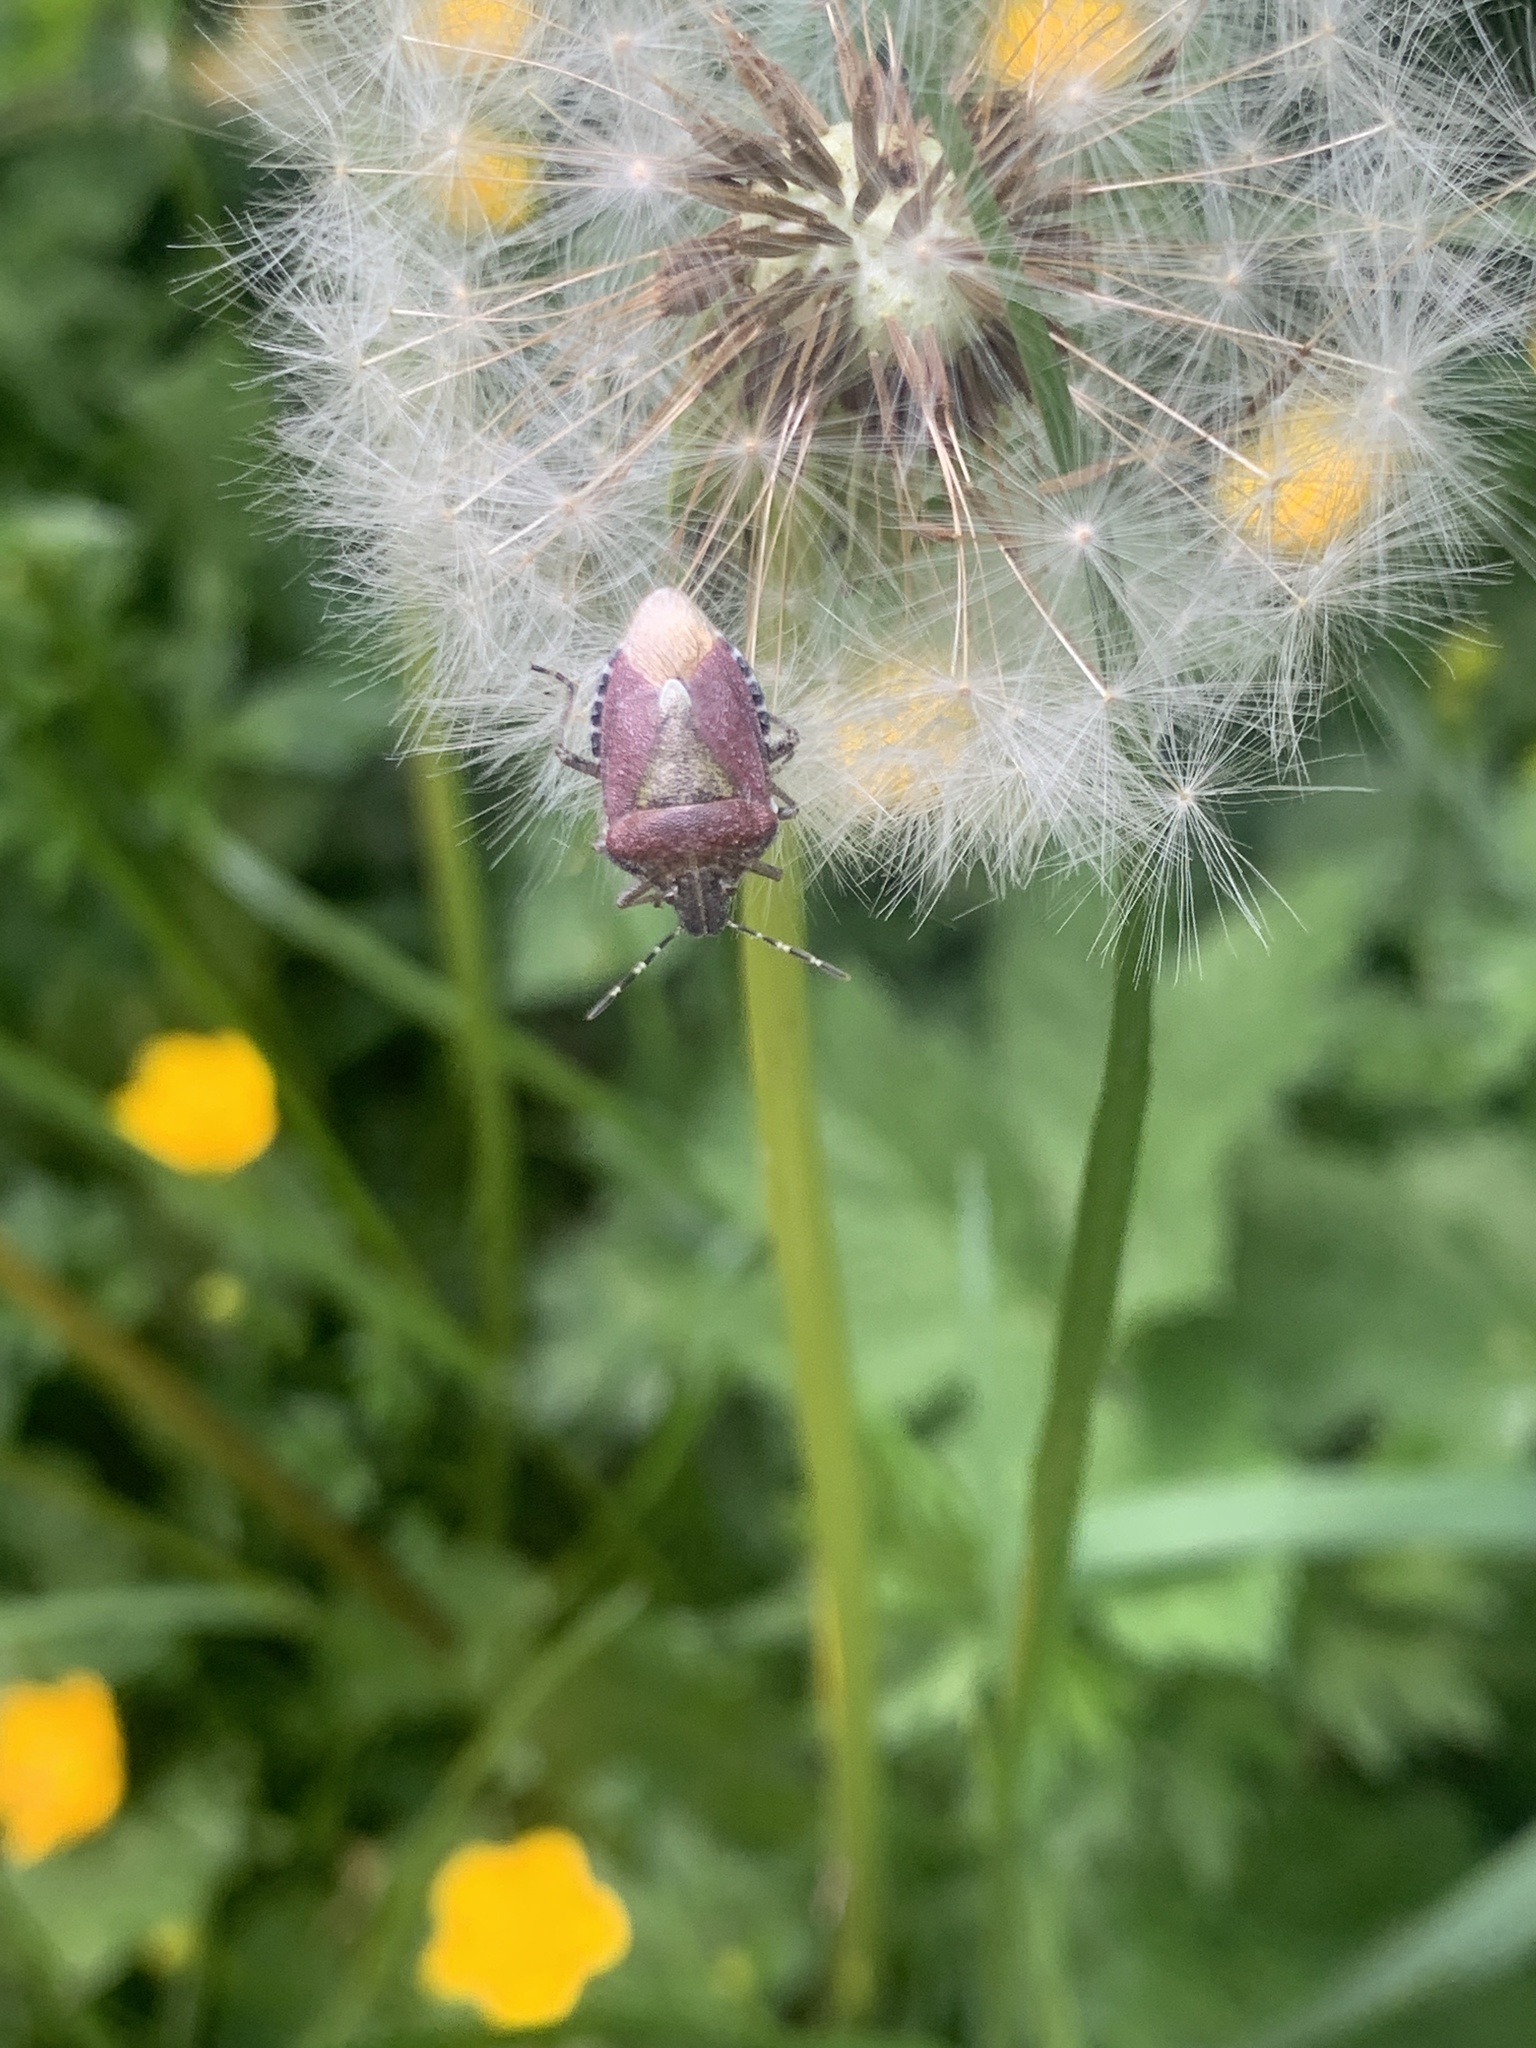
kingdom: Animalia
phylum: Arthropoda
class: Insecta
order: Hemiptera
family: Pentatomidae
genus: Dolycoris
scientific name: Dolycoris baccarum
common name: Sloe bug
